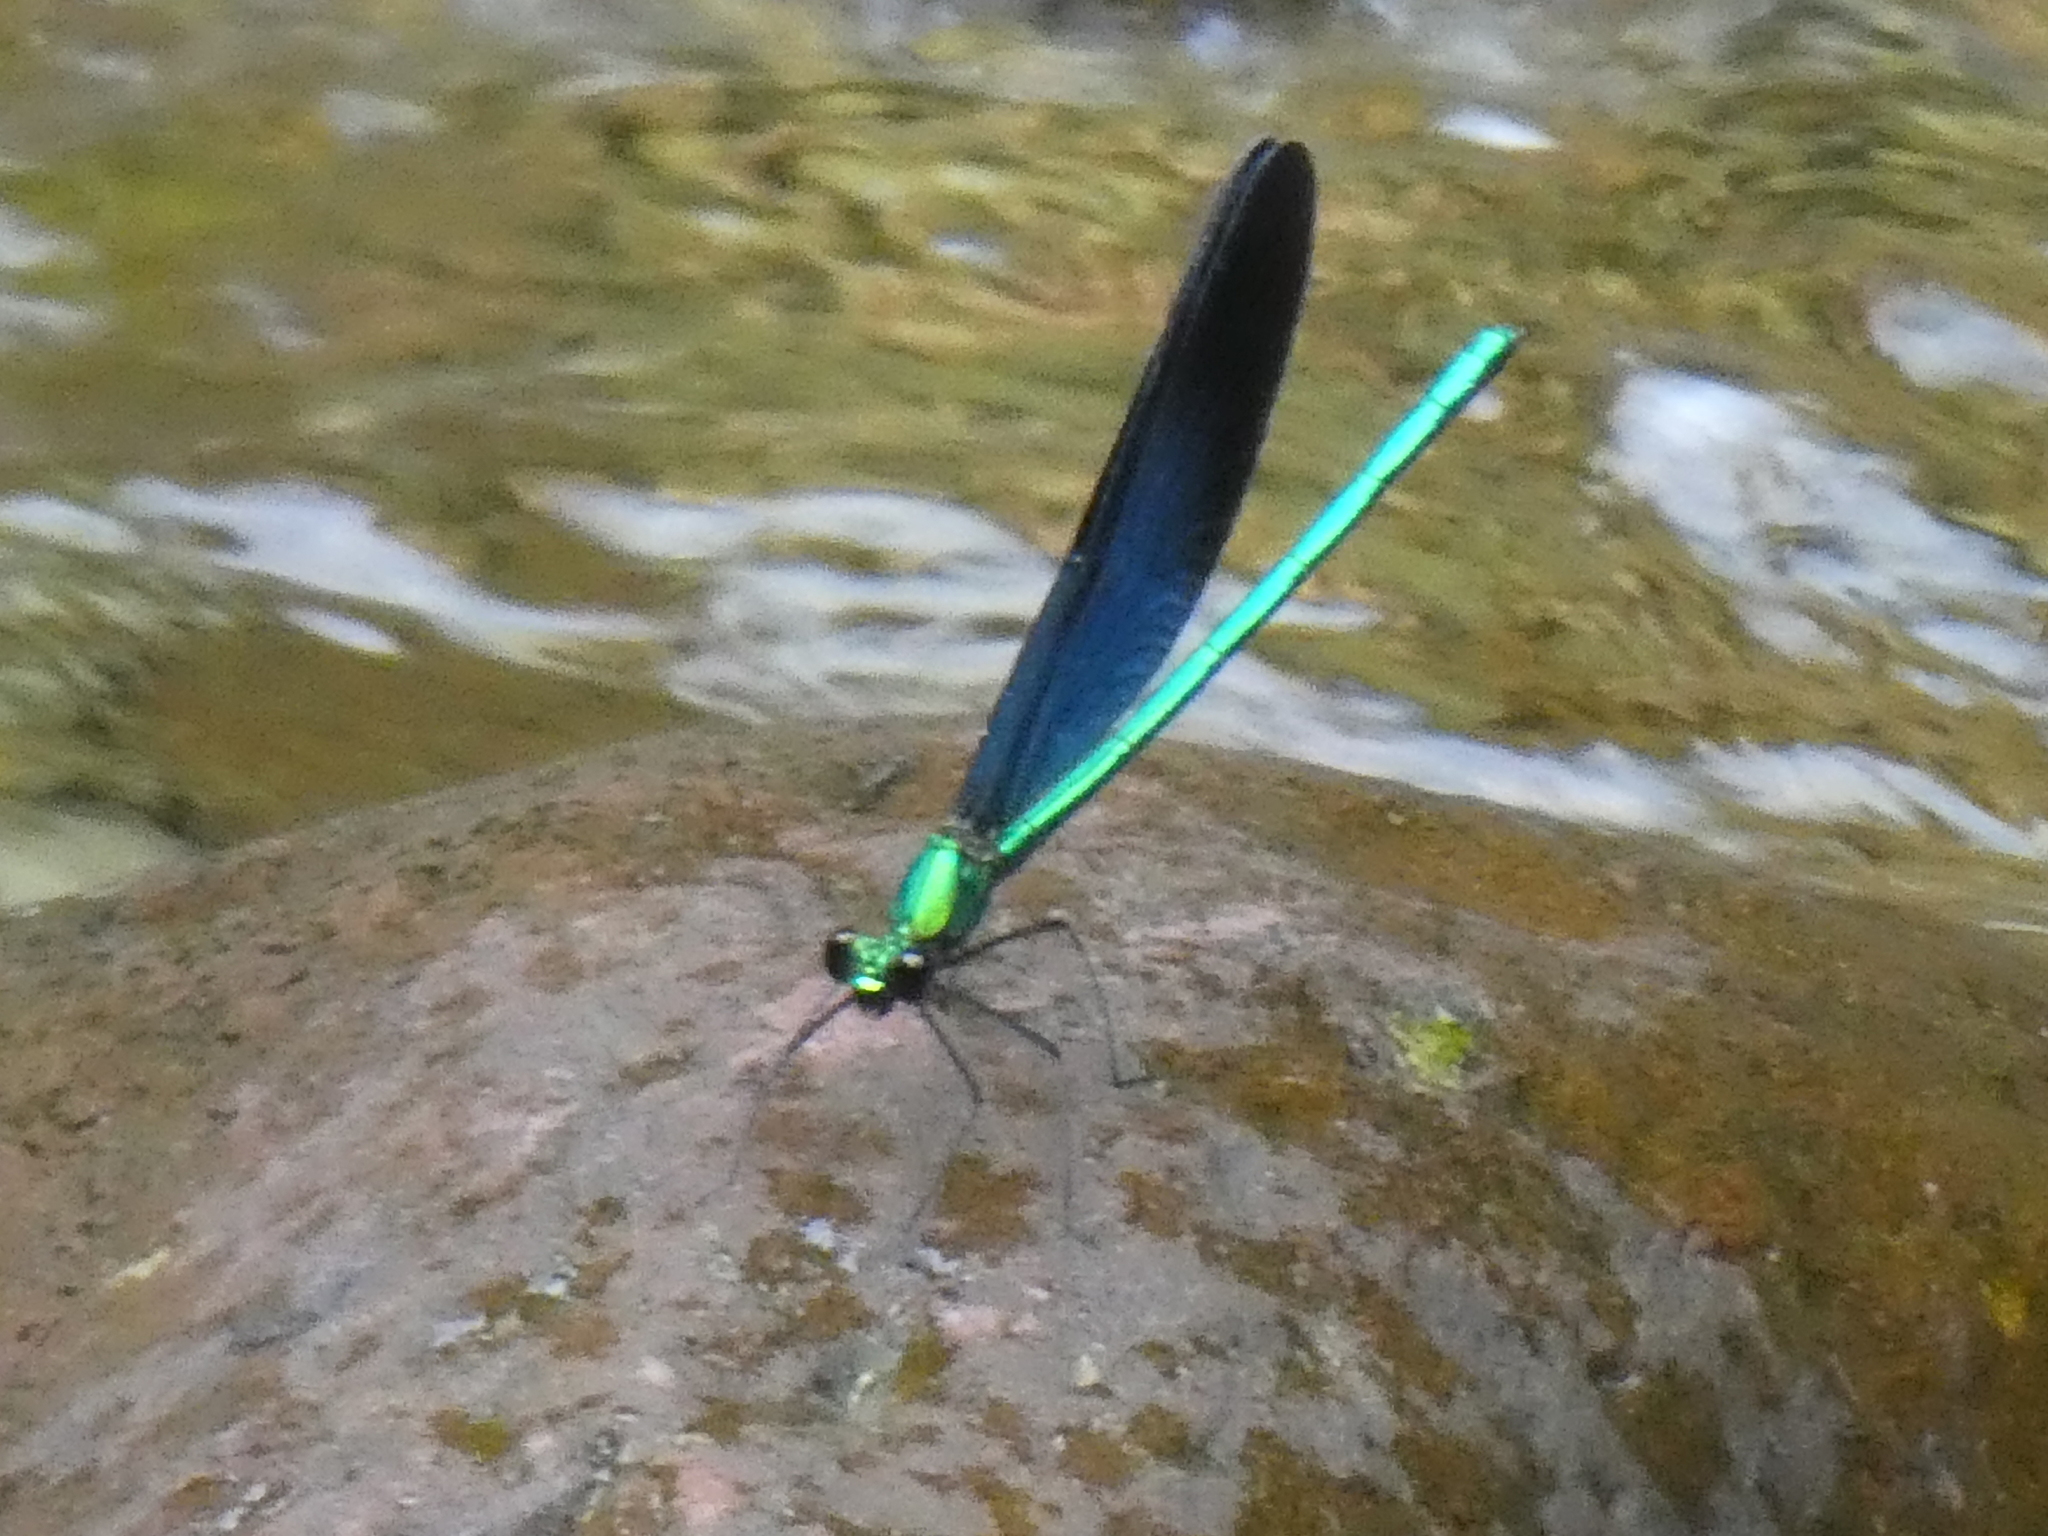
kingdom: Animalia
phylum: Arthropoda
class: Insecta
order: Odonata
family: Calopterygidae
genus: Matrona
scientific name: Matrona basilaris
